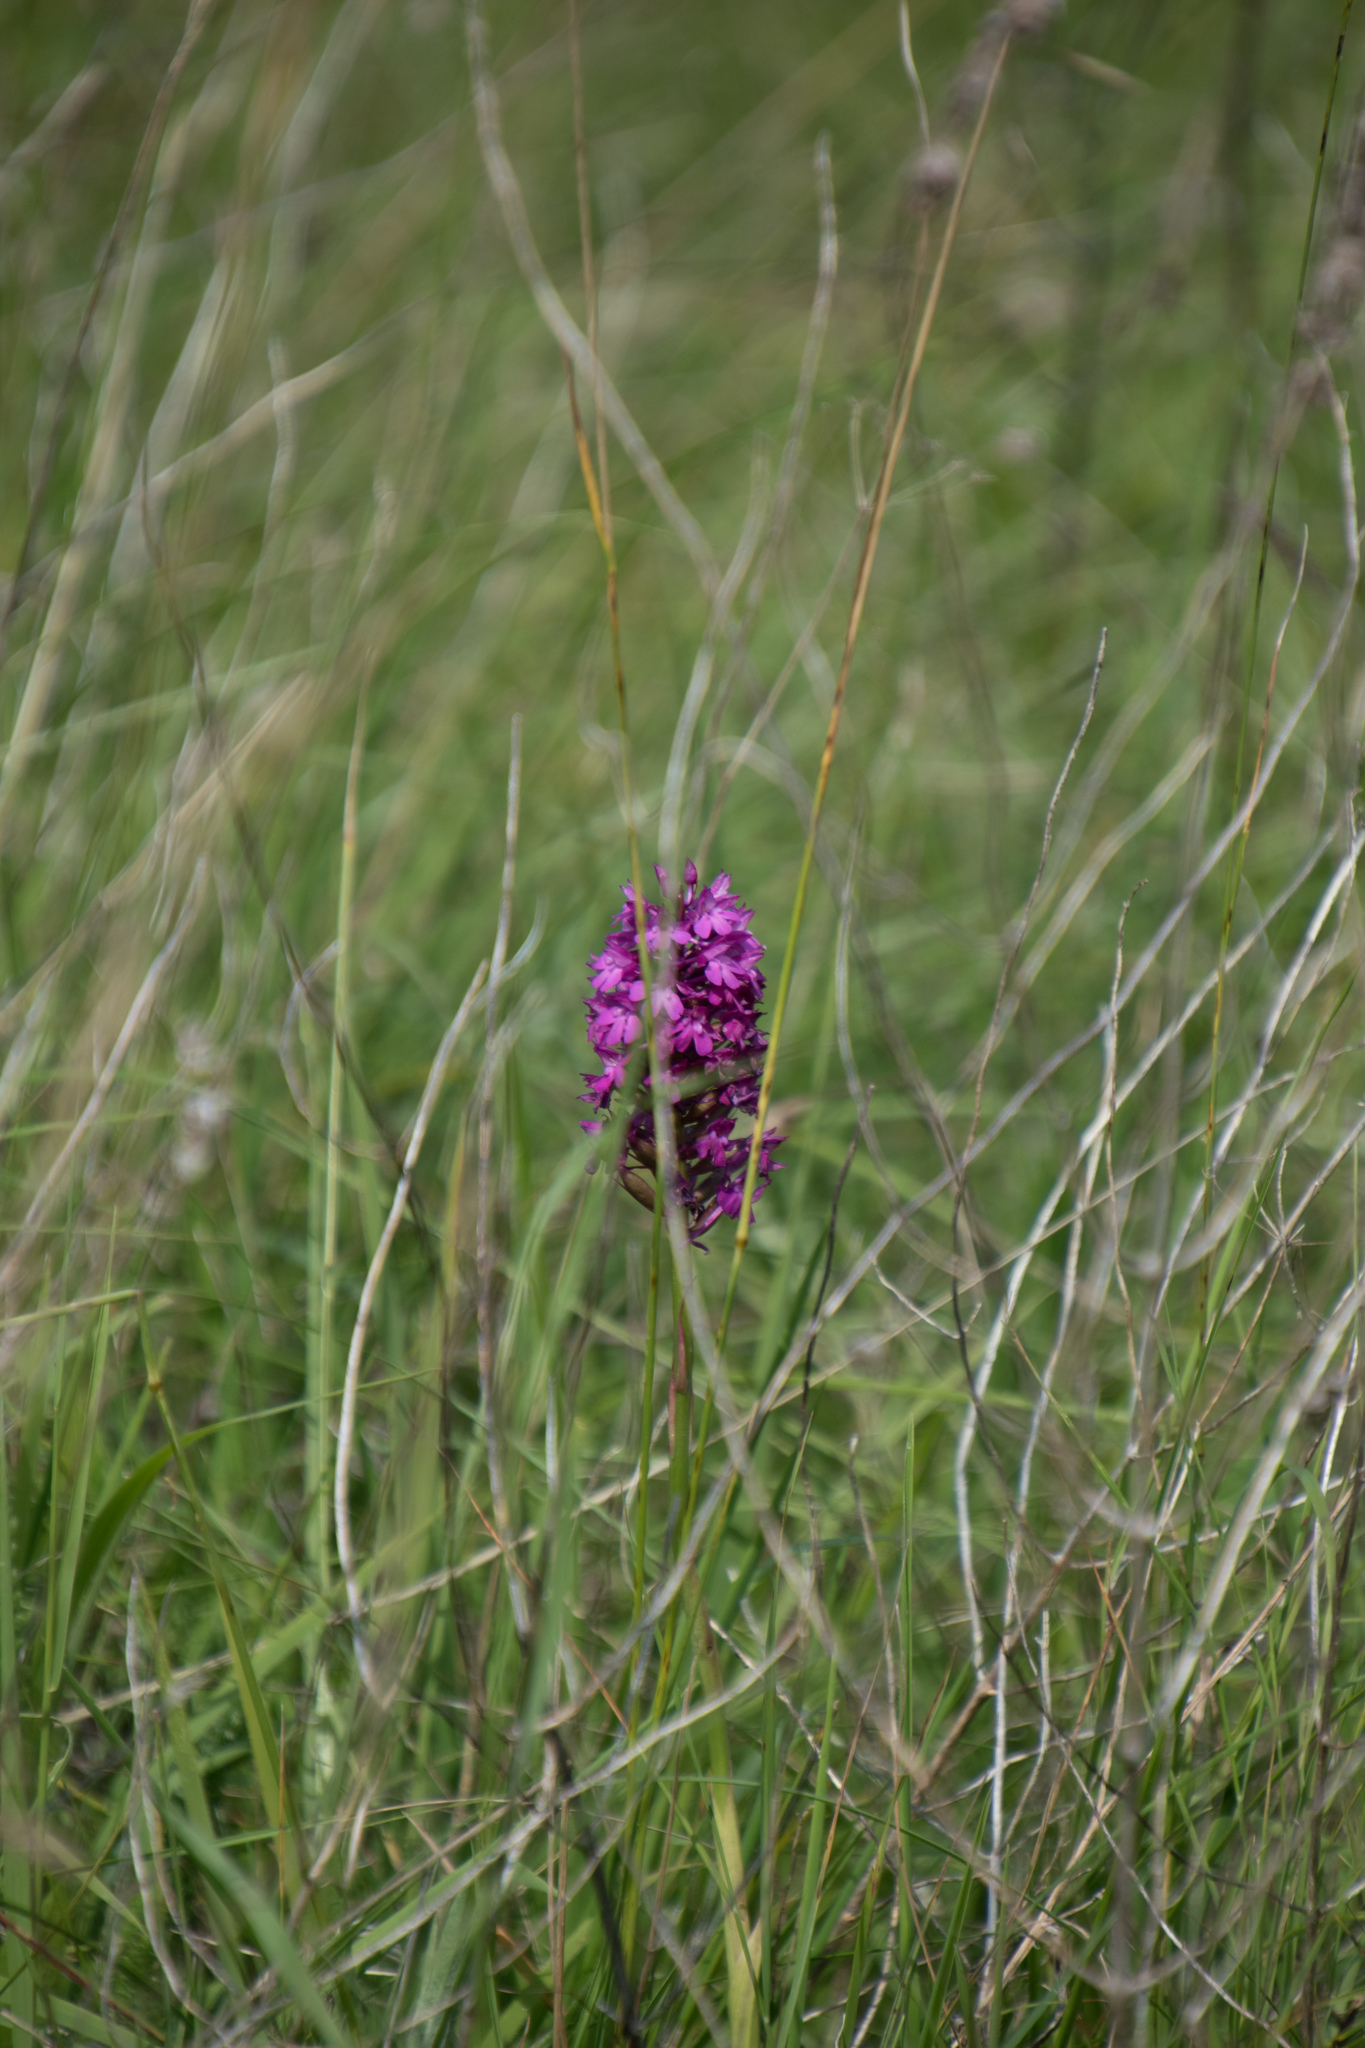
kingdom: Plantae
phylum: Tracheophyta
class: Liliopsida
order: Asparagales
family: Orchidaceae
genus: Anacamptis
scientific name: Anacamptis pyramidalis
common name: Pyramidal orchid
